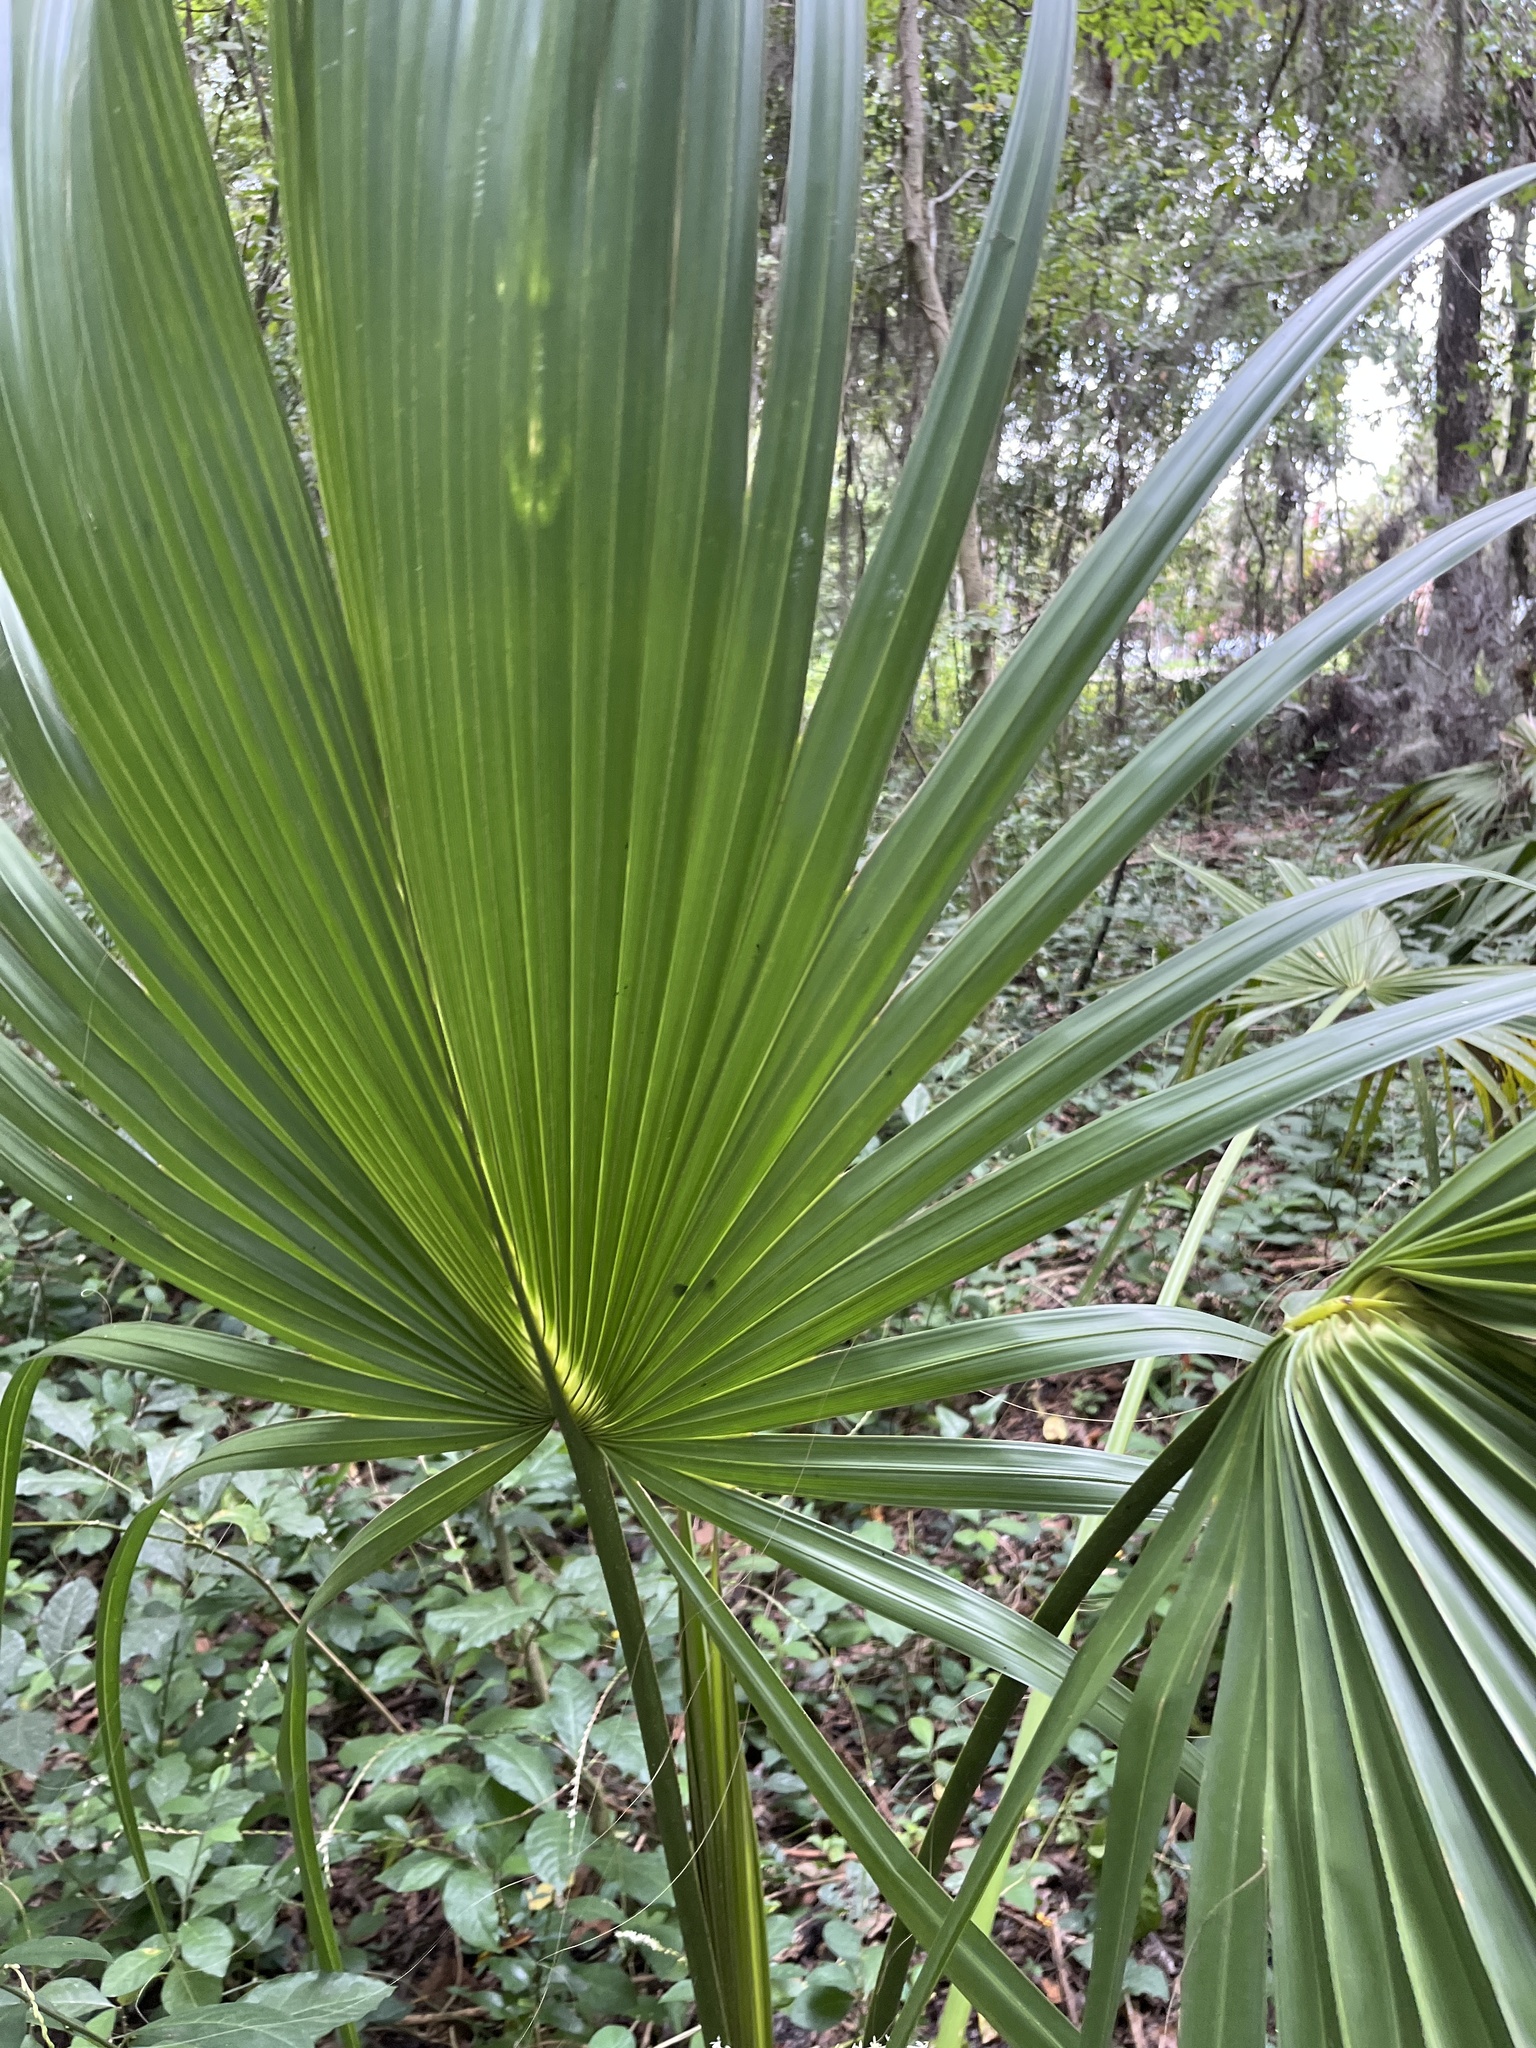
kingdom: Plantae
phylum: Tracheophyta
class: Liliopsida
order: Arecales
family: Arecaceae
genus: Sabal
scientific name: Sabal palmetto
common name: Blue palmetto
